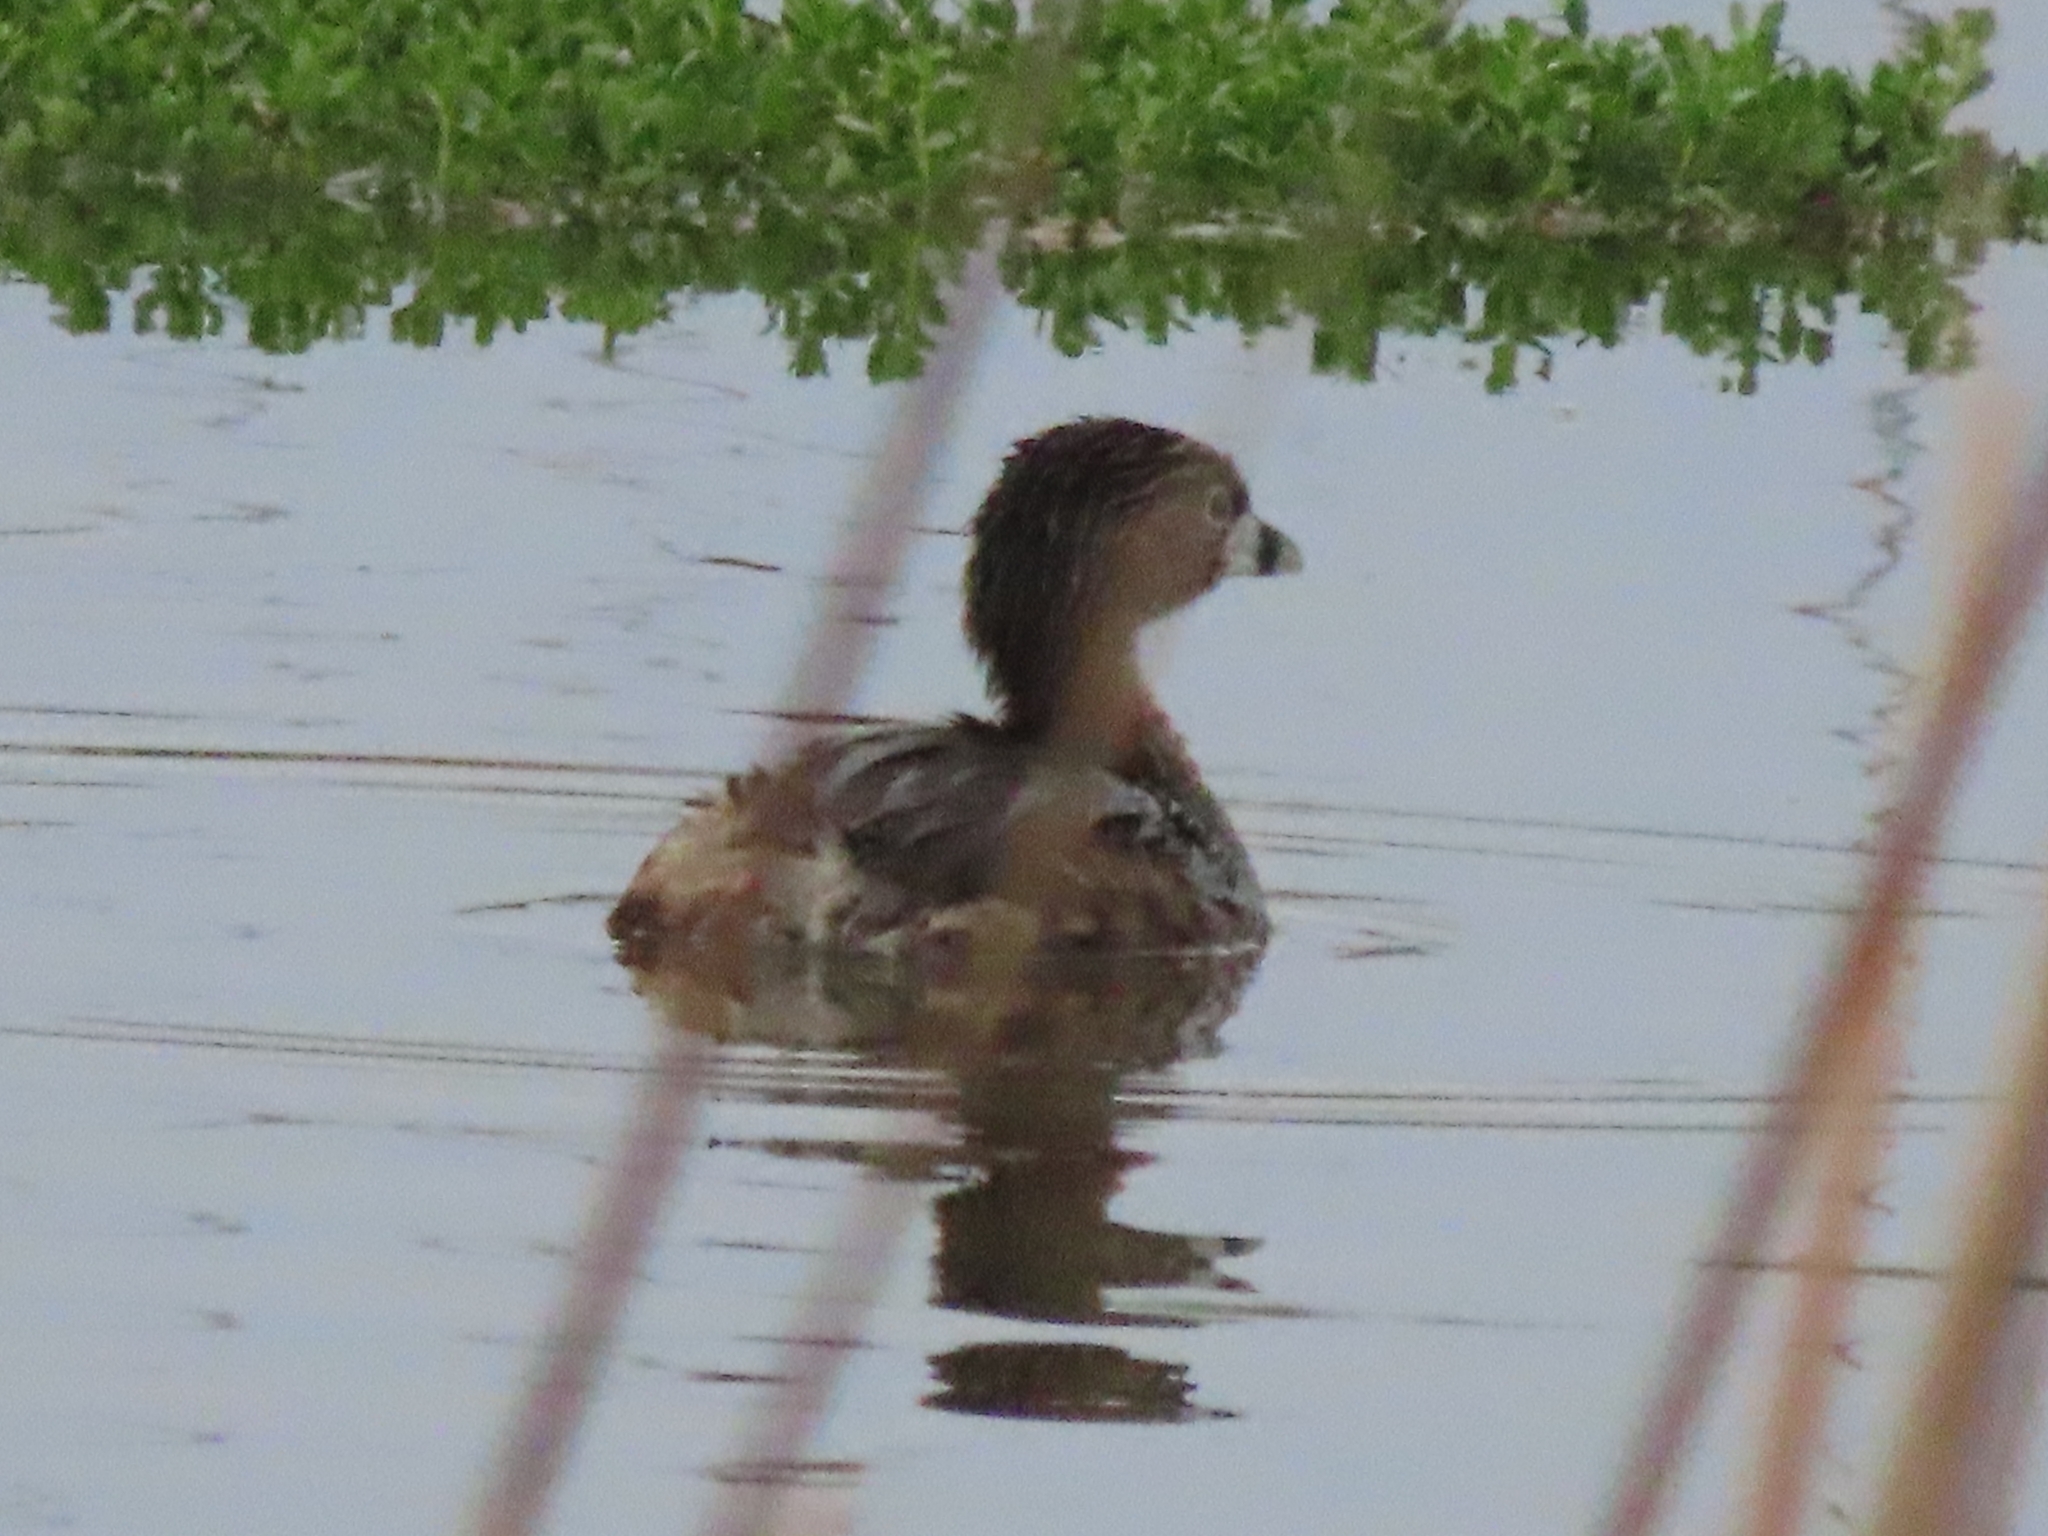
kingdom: Animalia
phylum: Chordata
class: Aves
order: Podicipediformes
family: Podicipedidae
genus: Podilymbus
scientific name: Podilymbus podiceps
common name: Pied-billed grebe
